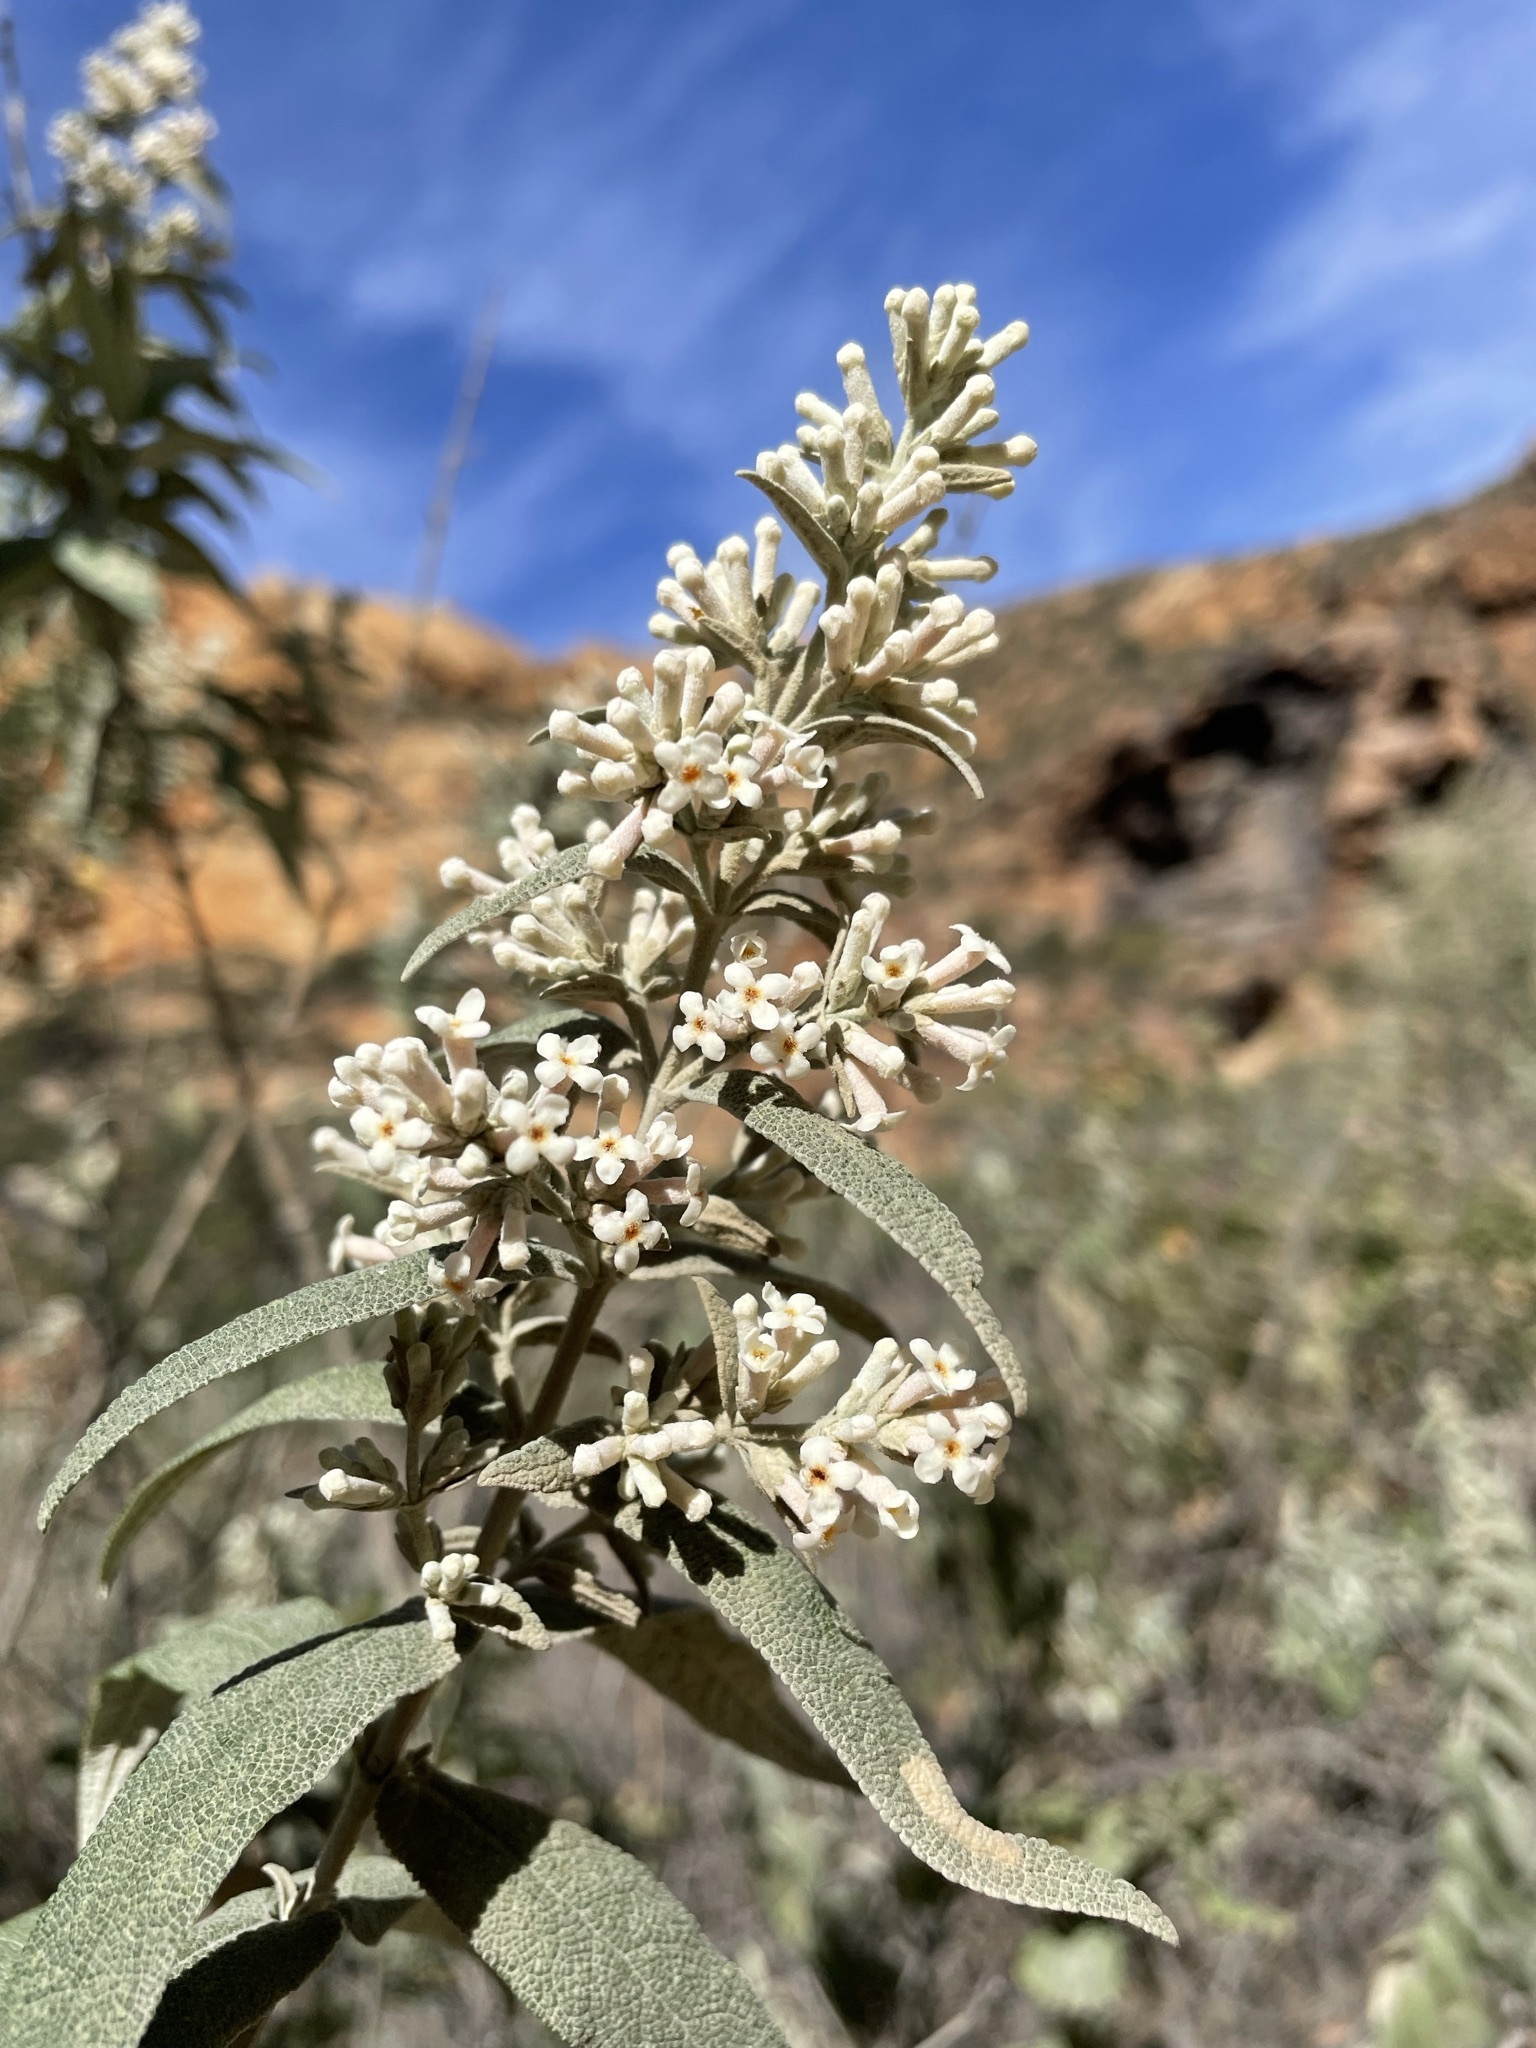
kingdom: Plantae
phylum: Tracheophyta
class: Magnoliopsida
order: Lamiales
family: Scrophulariaceae
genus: Buddleja
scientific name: Buddleja salviifolia
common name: Sagewood
